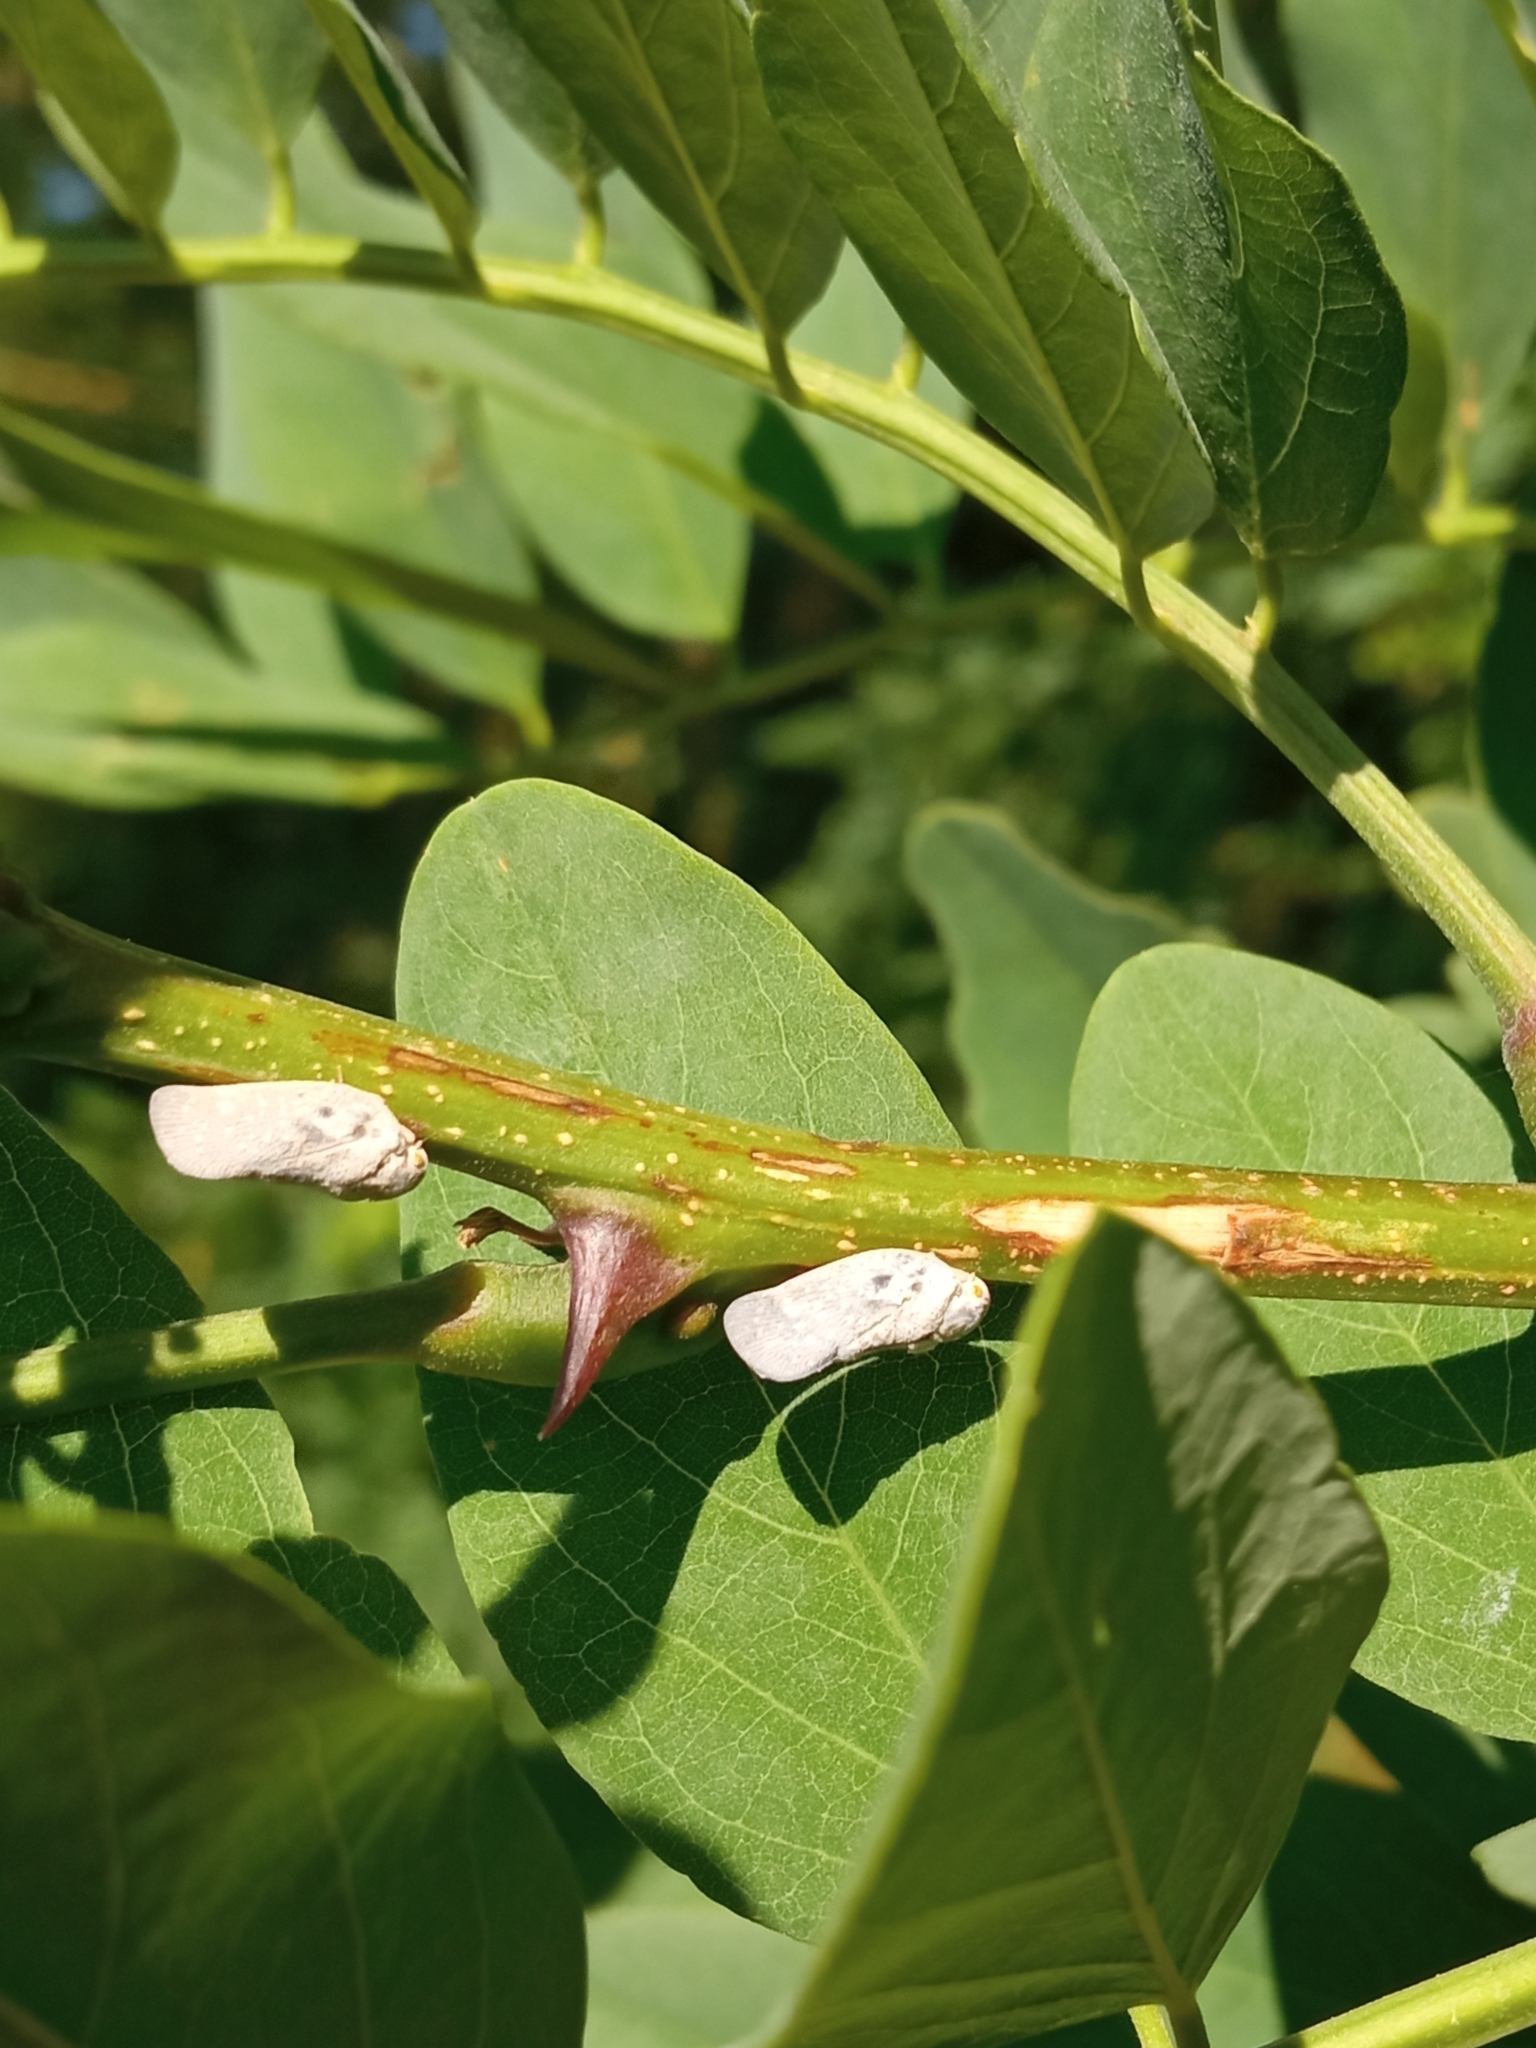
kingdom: Animalia
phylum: Arthropoda
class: Insecta
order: Hemiptera
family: Flatidae
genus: Metcalfa
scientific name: Metcalfa pruinosa
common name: Citrus flatid planthopper
